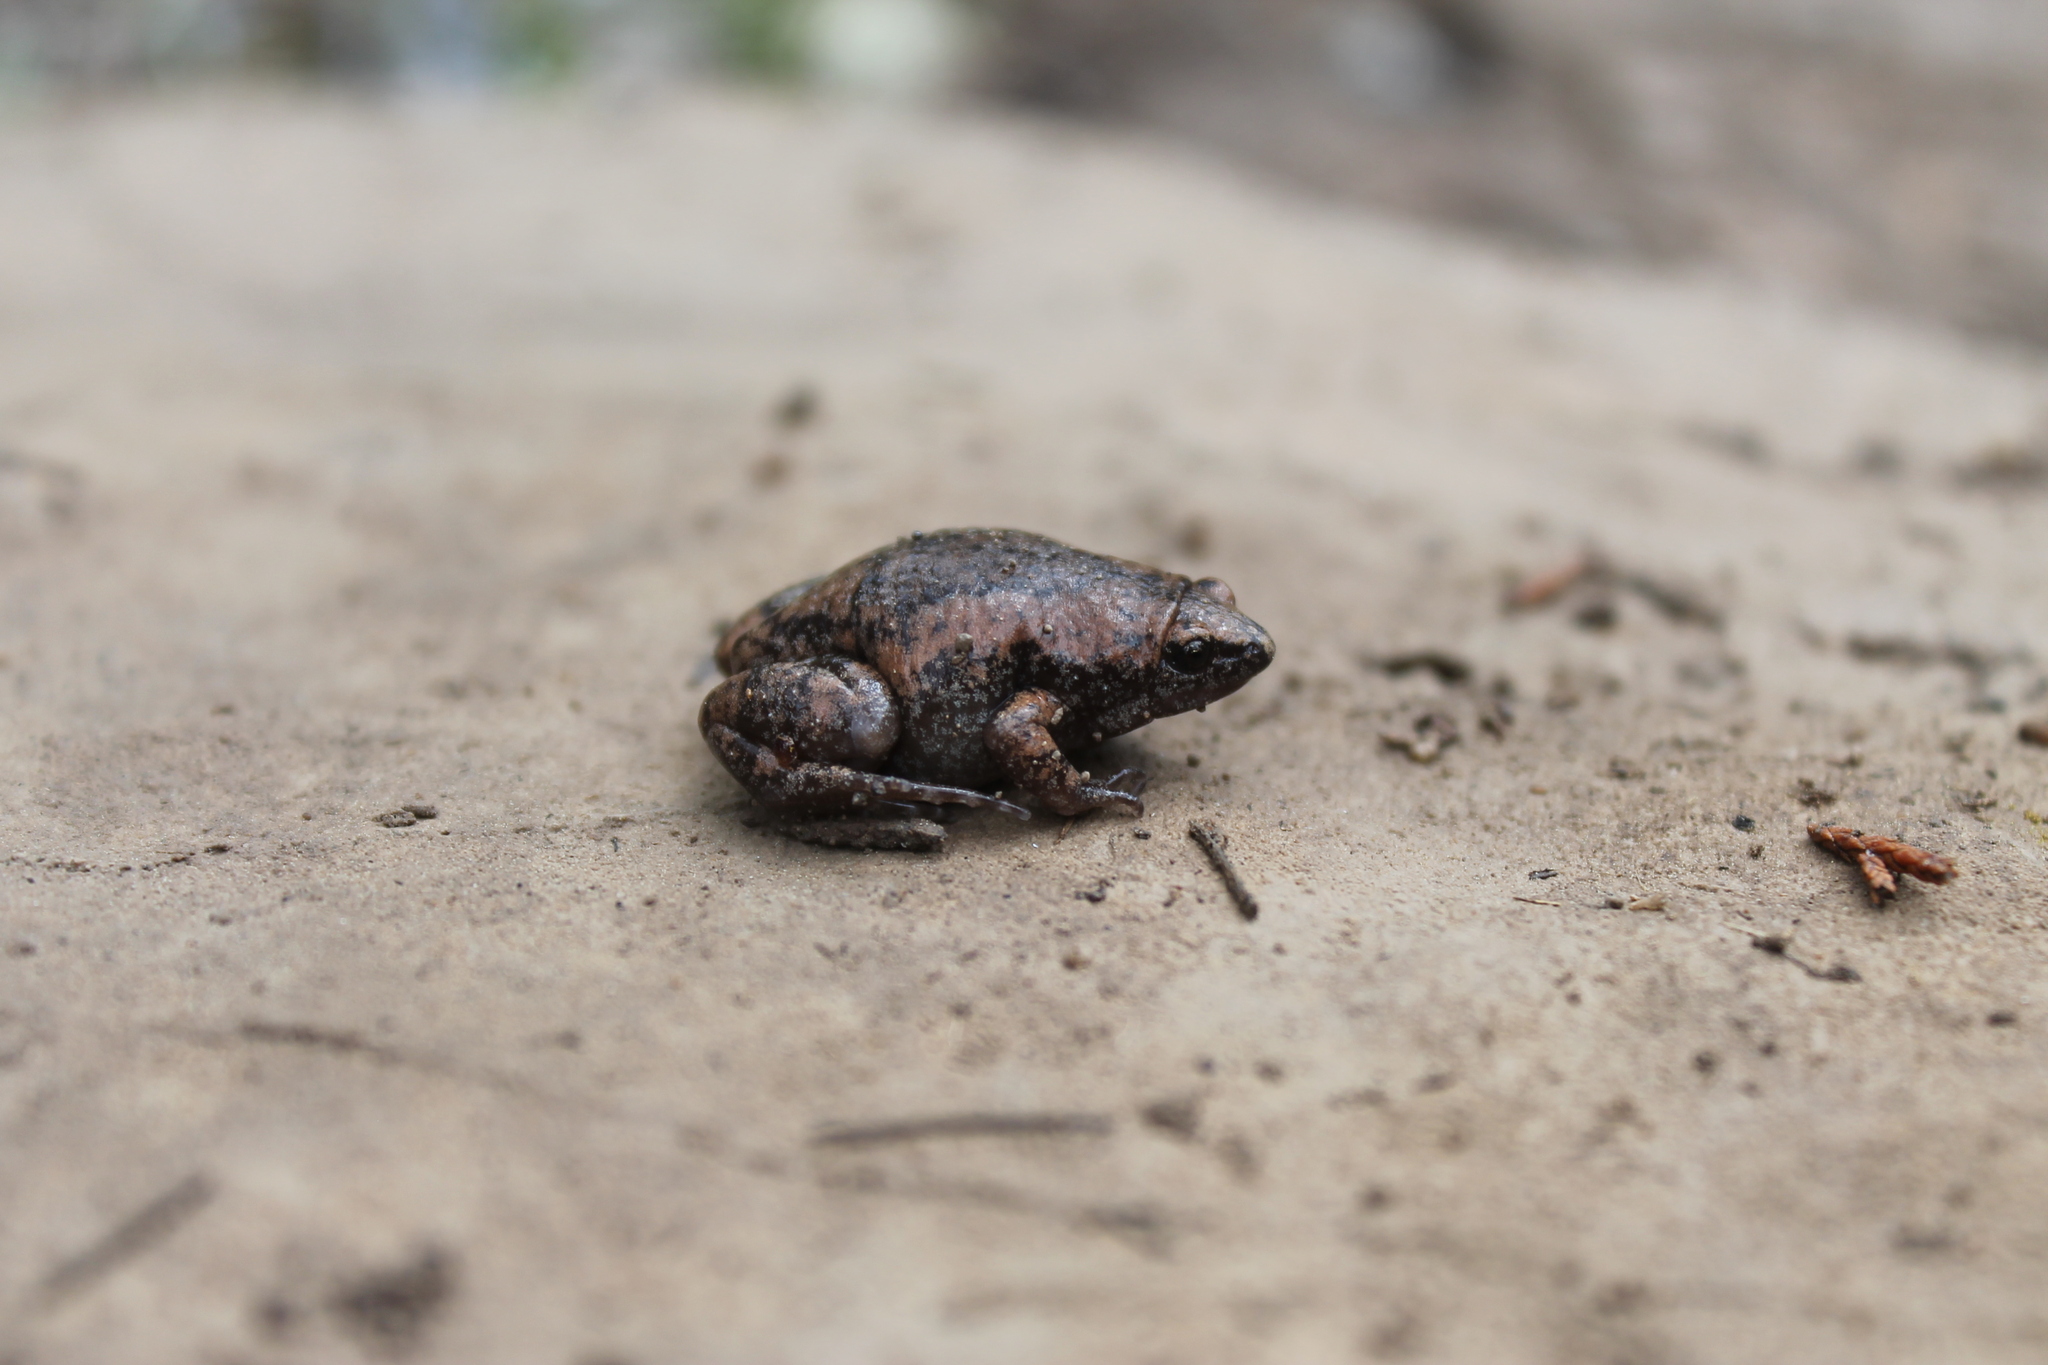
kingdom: Animalia
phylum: Chordata
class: Amphibia
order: Anura
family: Microhylidae
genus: Gastrophryne
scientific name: Gastrophryne carolinensis
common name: Eastern narrowmouth toad
